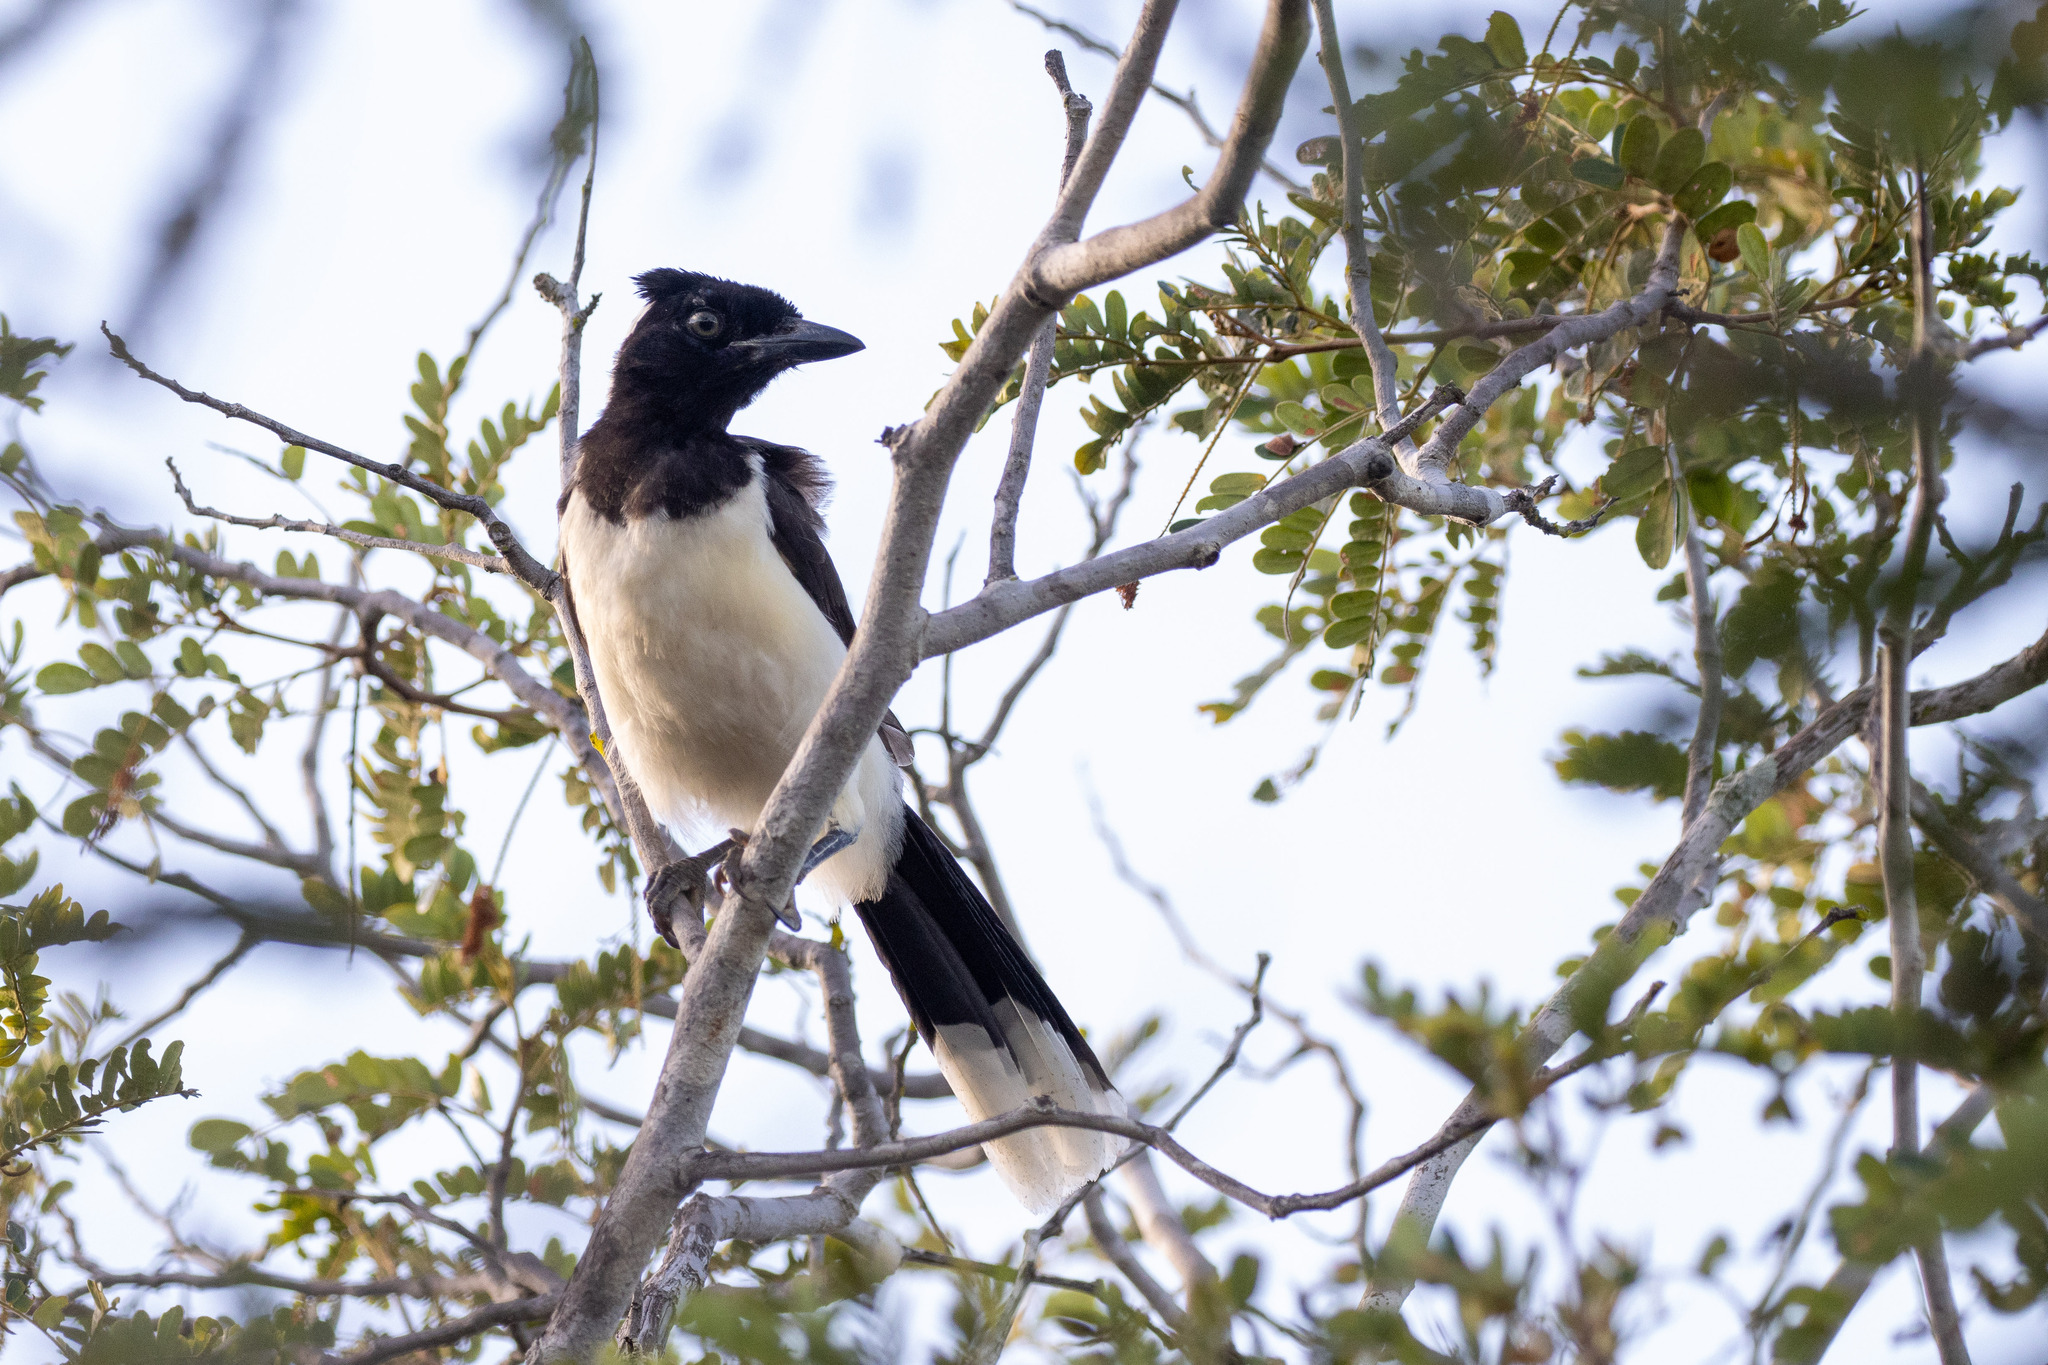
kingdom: Animalia
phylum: Chordata
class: Aves
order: Passeriformes
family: Corvidae
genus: Cyanocorax
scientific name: Cyanocorax cyanopogon
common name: White-naped jay
